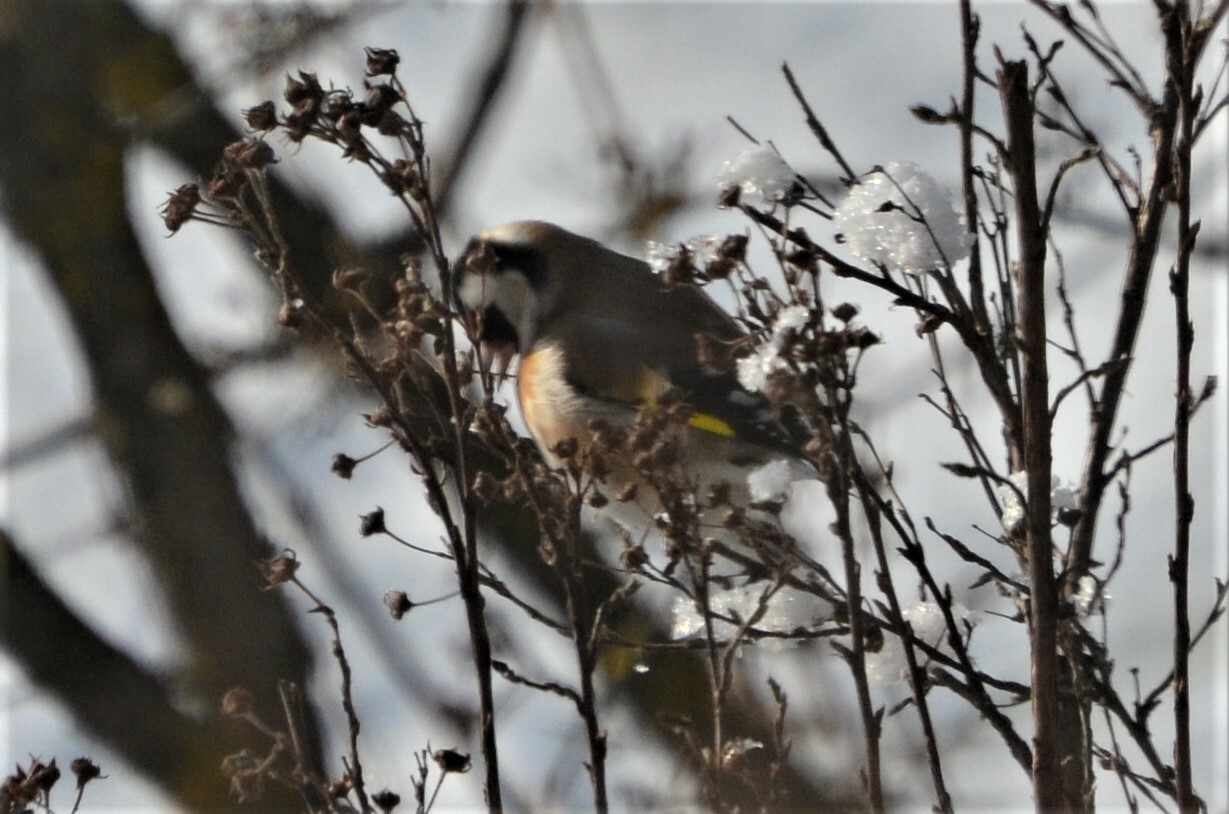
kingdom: Animalia
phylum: Chordata
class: Aves
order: Passeriformes
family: Fringillidae
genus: Carduelis
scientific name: Carduelis carduelis
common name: European goldfinch
